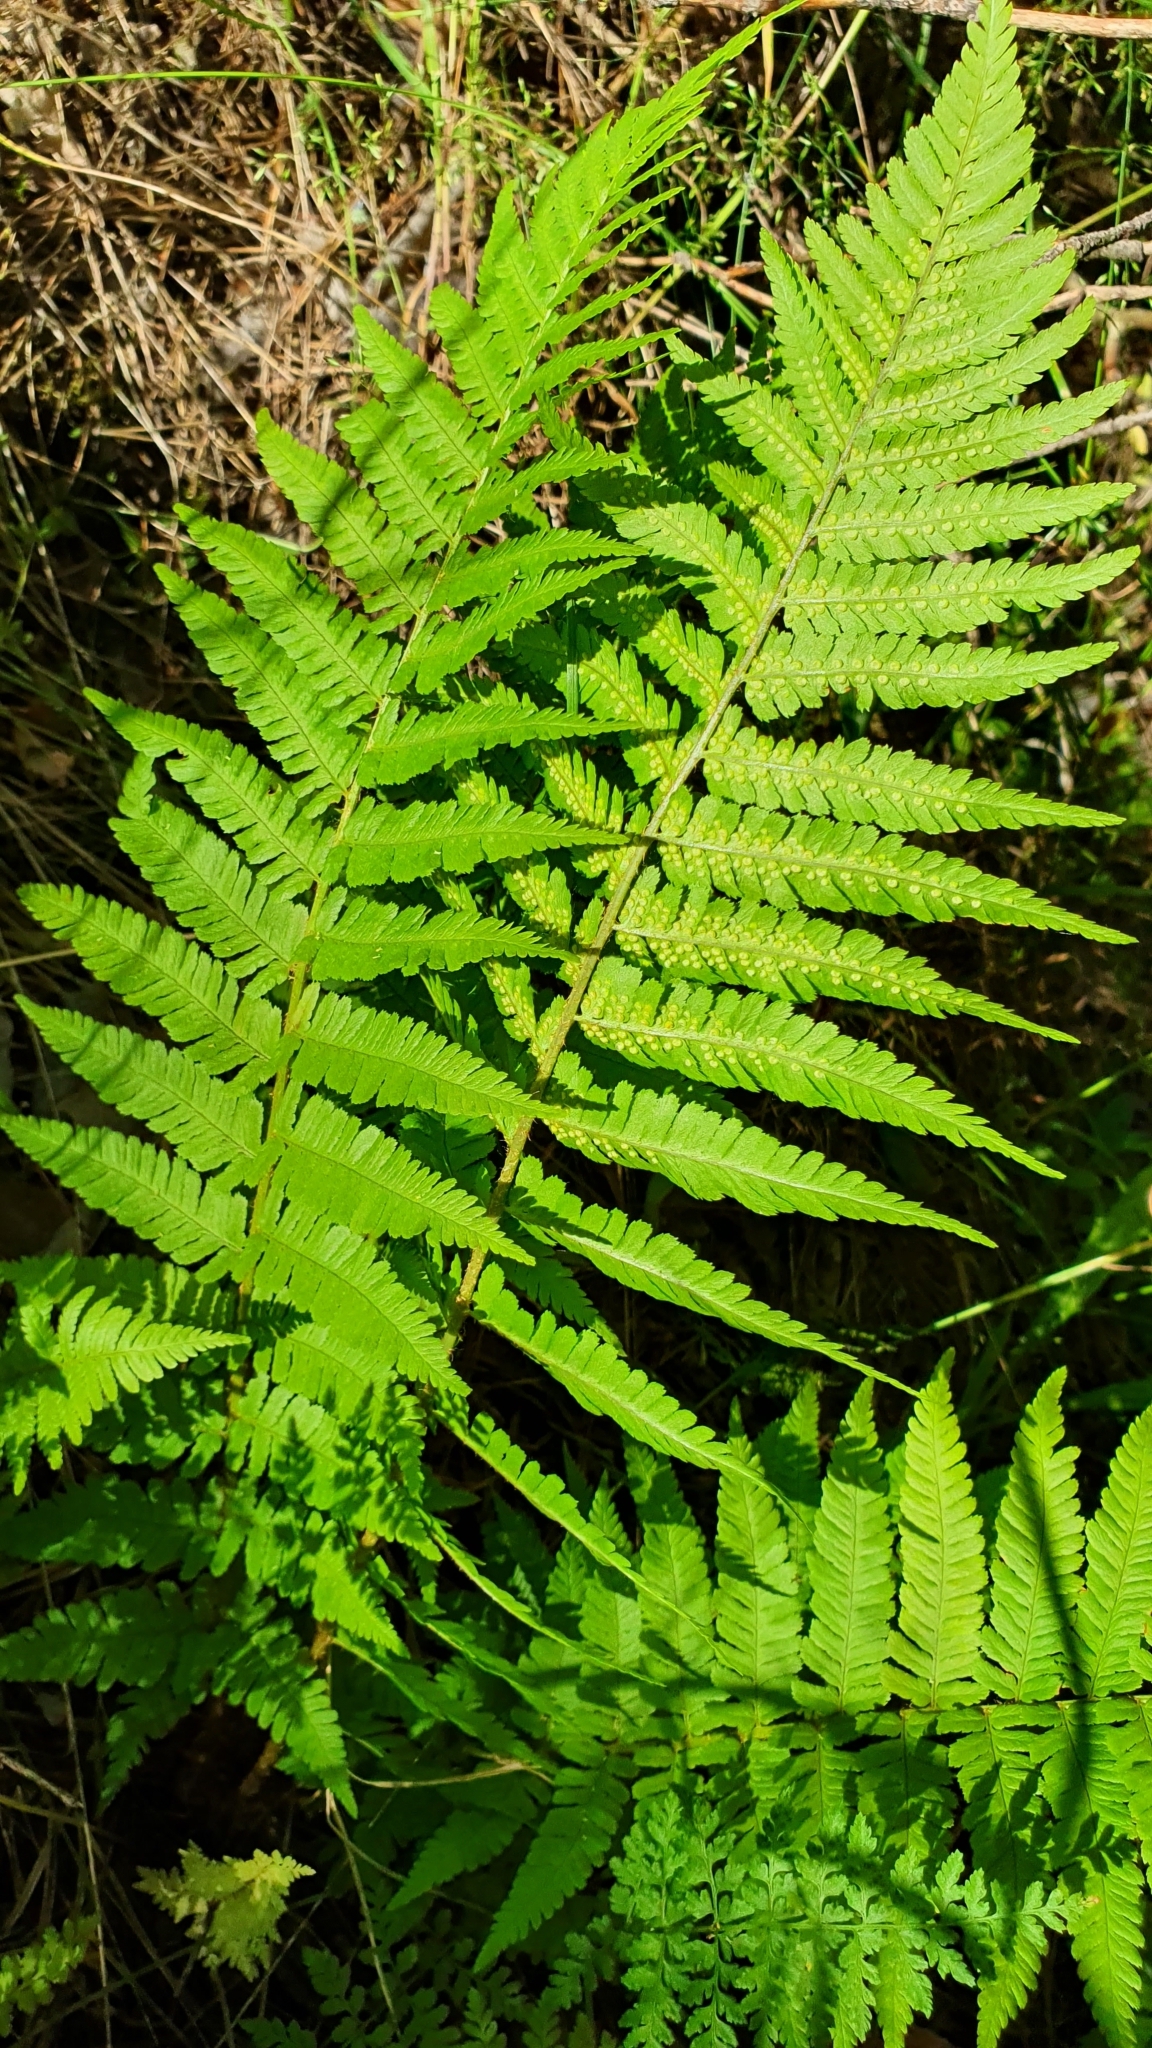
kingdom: Plantae
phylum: Tracheophyta
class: Polypodiopsida
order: Polypodiales
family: Dryopteridaceae
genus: Dryopteris
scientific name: Dryopteris filix-mas
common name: Male fern
